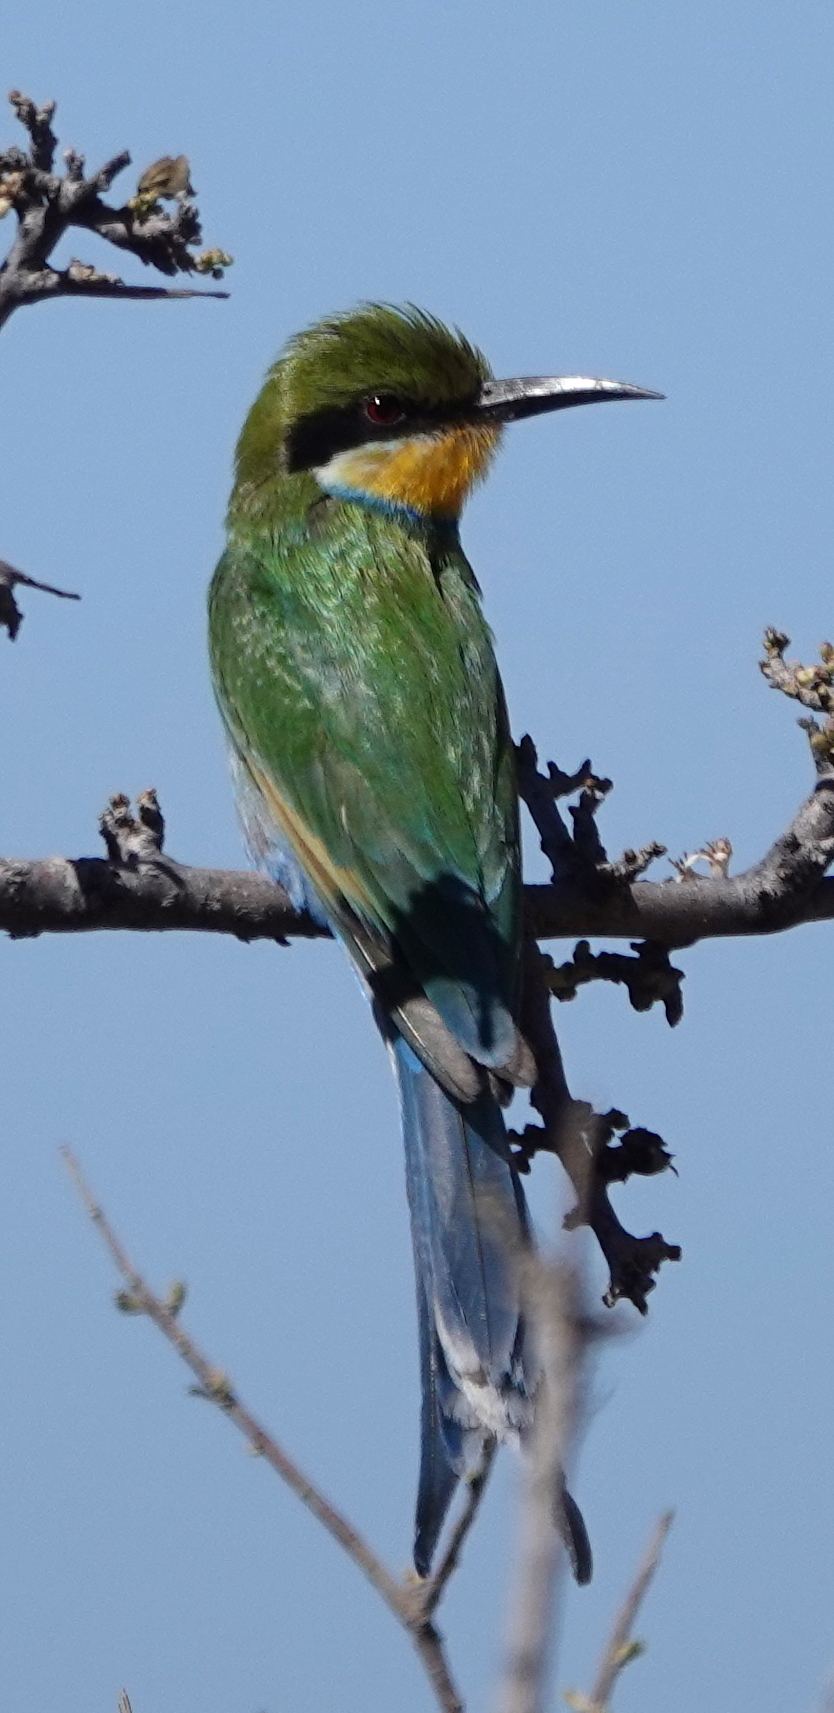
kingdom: Animalia
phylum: Chordata
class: Aves
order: Coraciiformes
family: Meropidae
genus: Merops
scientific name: Merops hirundineus
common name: Swallow-tailed bee-eater
